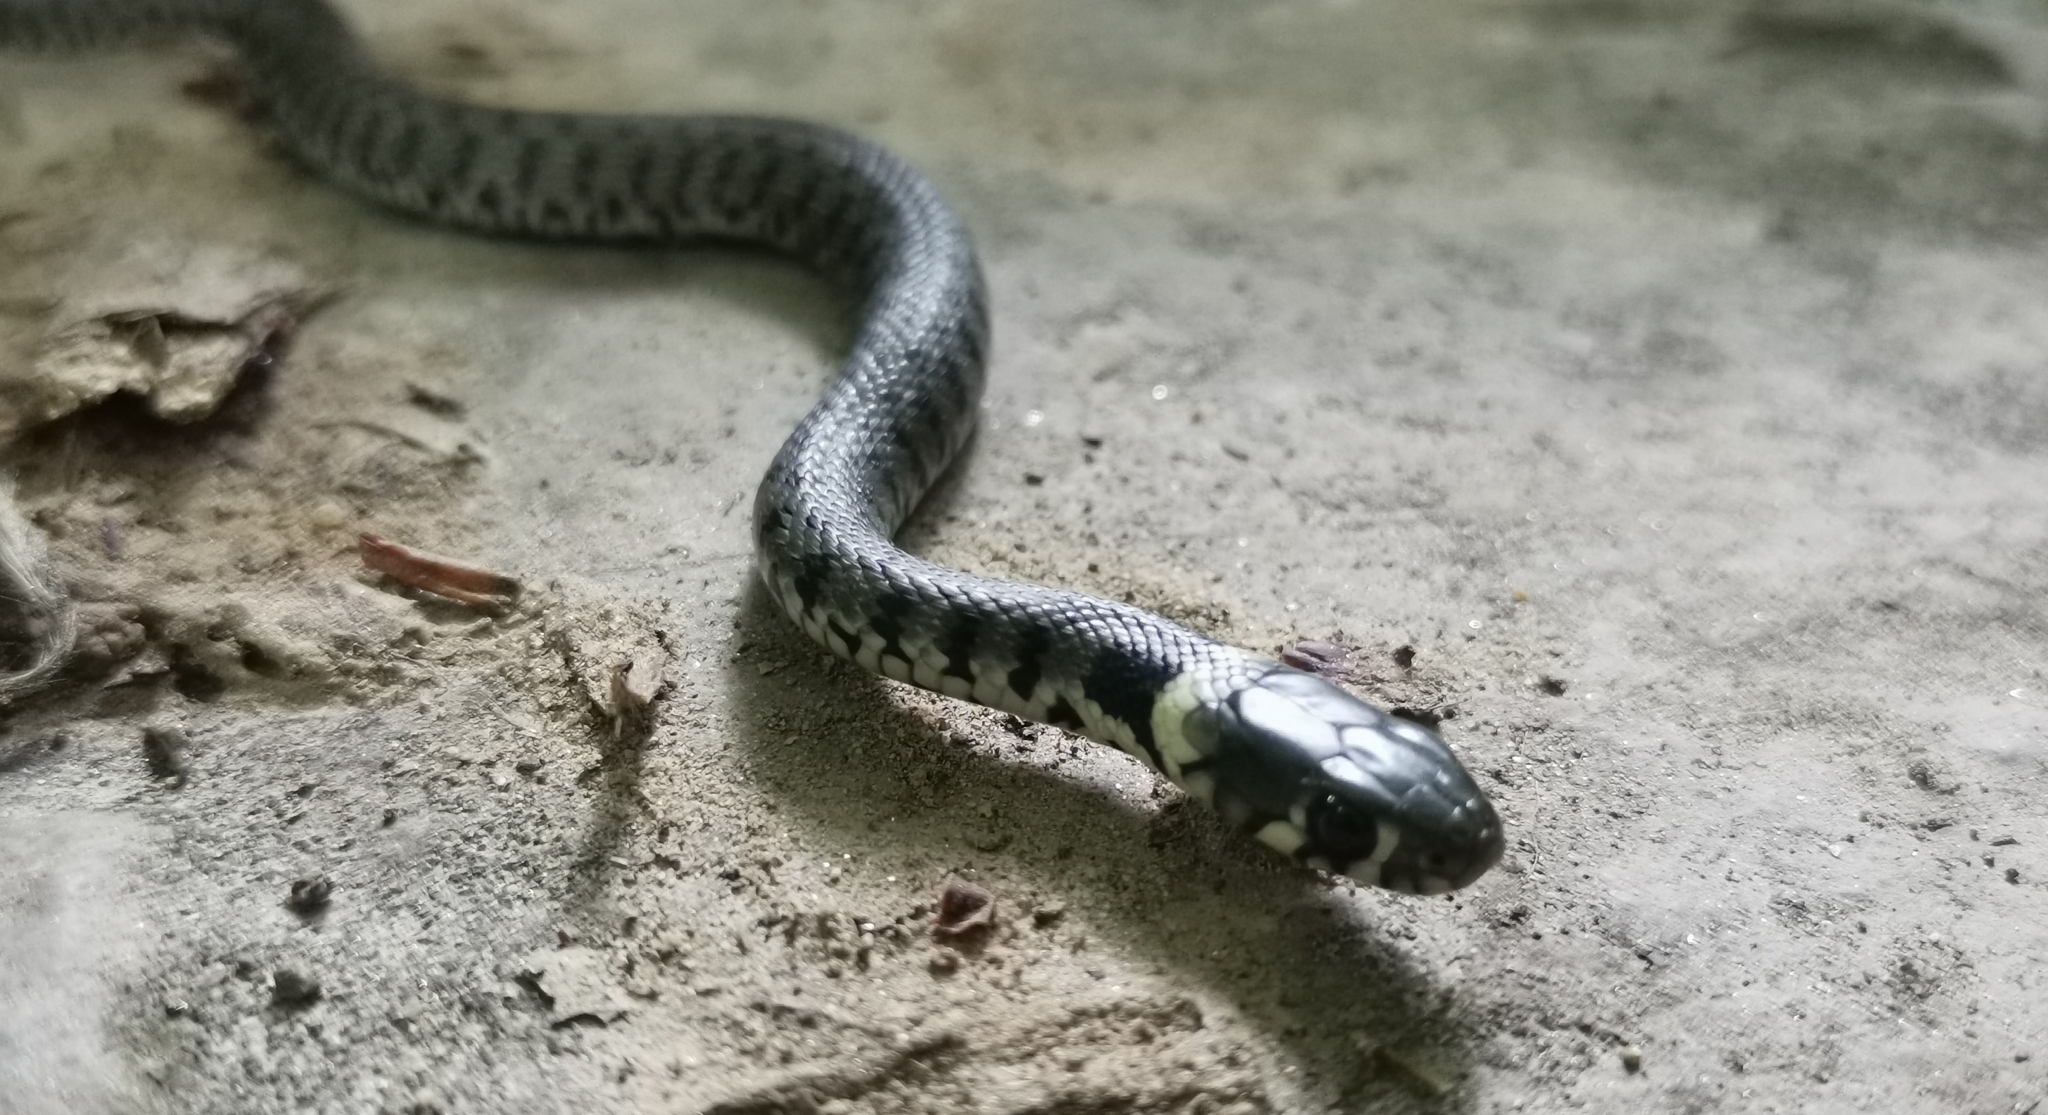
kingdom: Animalia
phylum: Chordata
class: Squamata
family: Colubridae
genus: Natrix
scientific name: Natrix helvetica
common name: Banded grass snake
